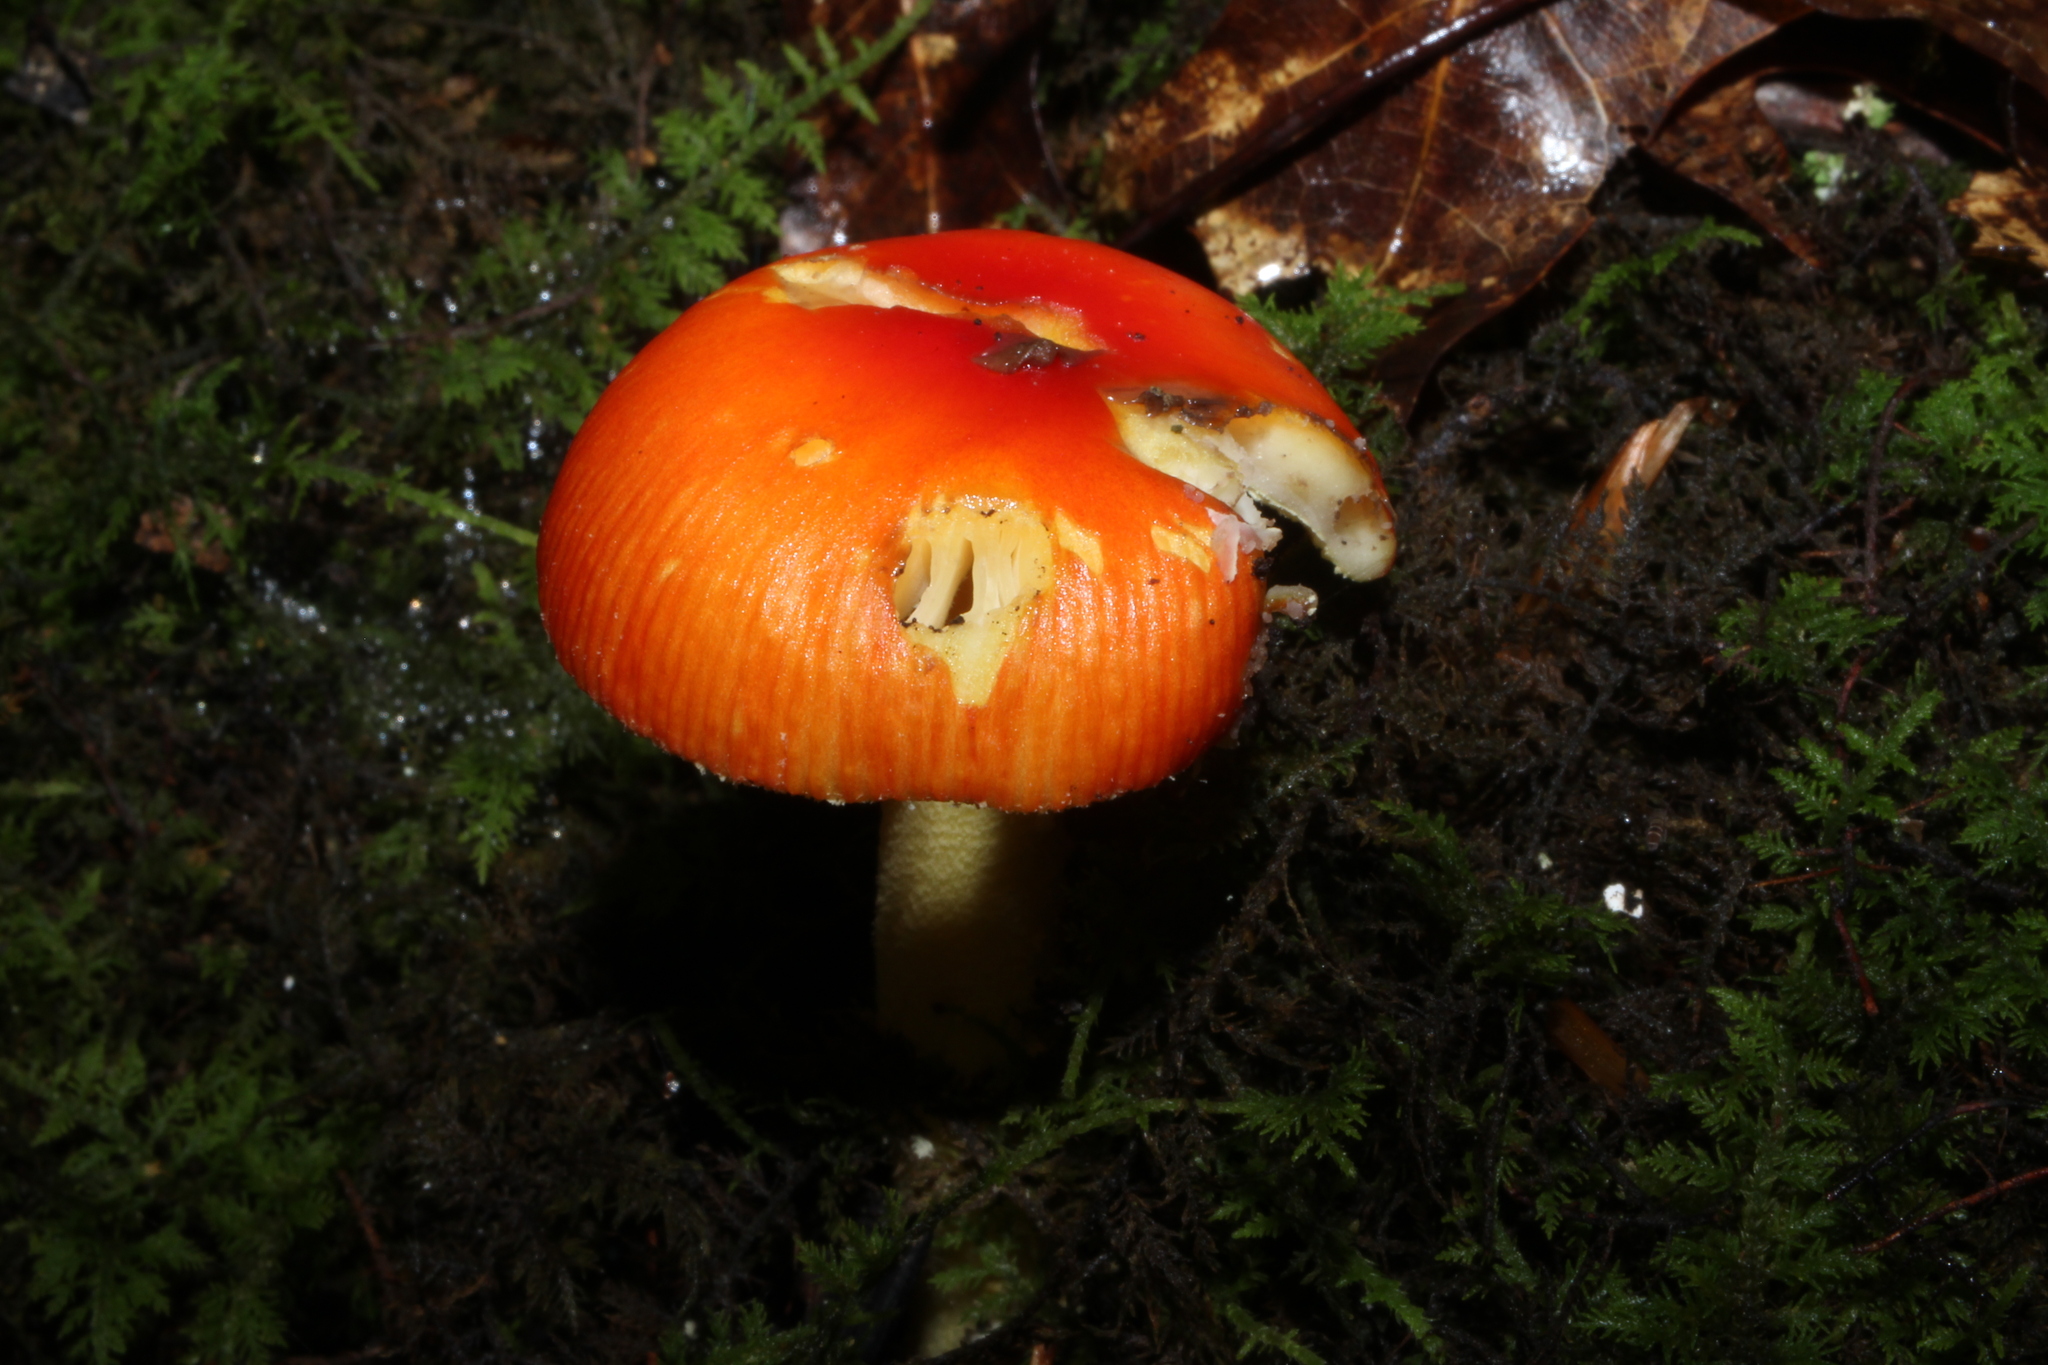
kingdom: Fungi
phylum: Basidiomycota
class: Agaricomycetes
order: Agaricales
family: Amanitaceae
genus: Amanita
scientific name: Amanita parcivolvata
